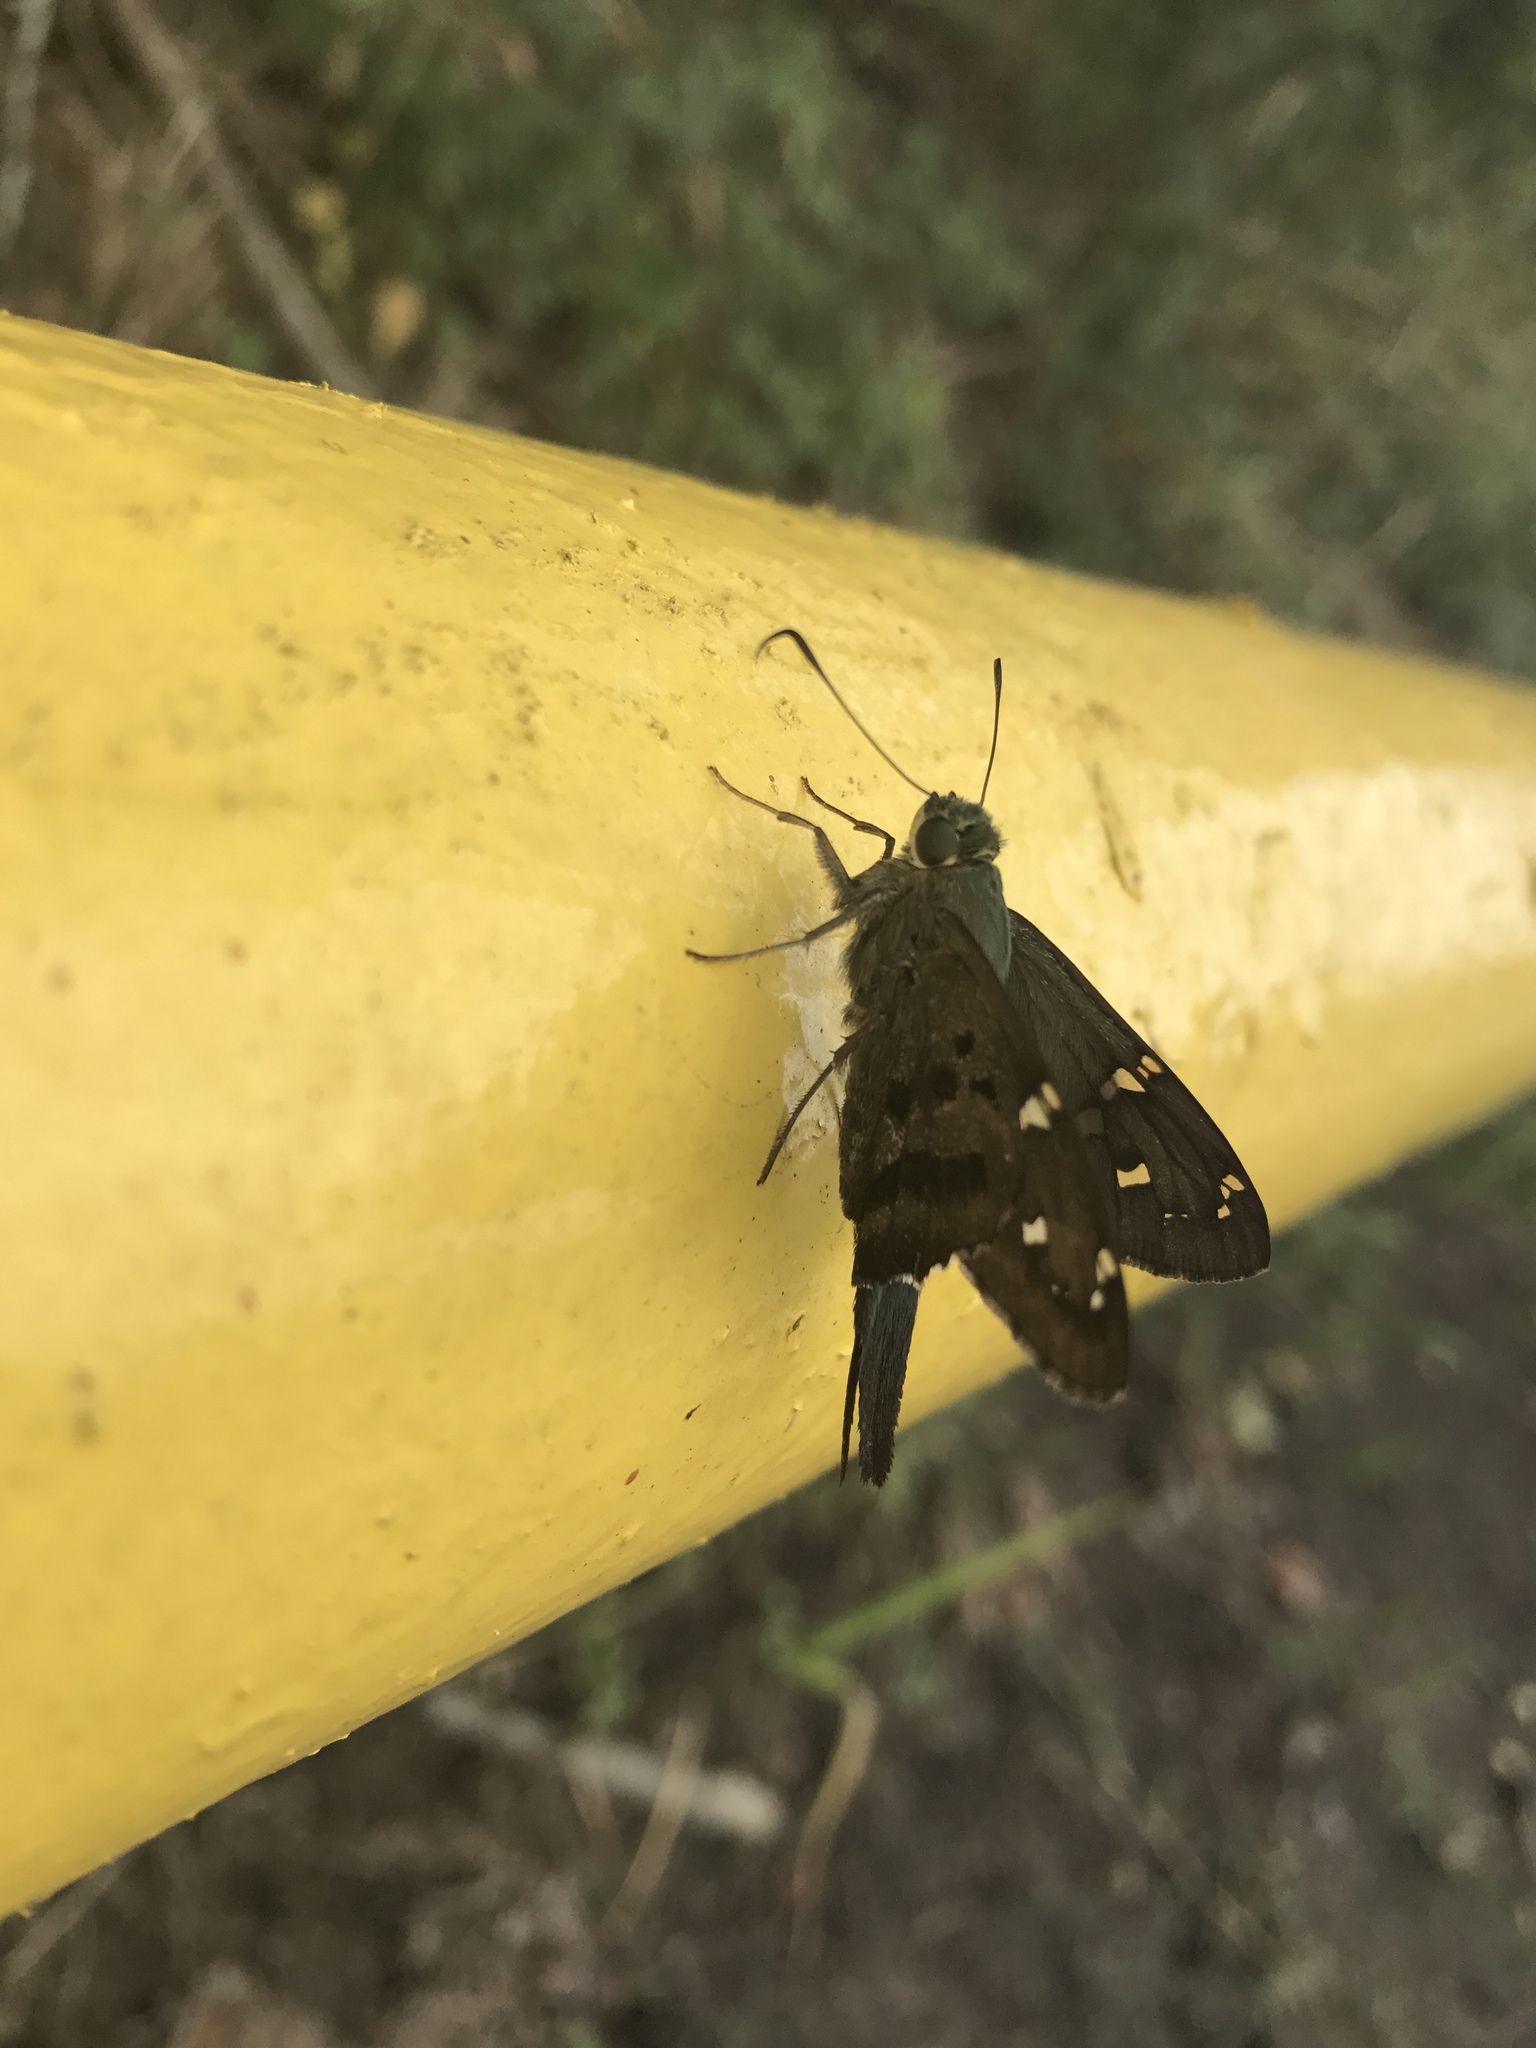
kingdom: Animalia
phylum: Arthropoda
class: Insecta
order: Lepidoptera
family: Hesperiidae
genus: Urbanus
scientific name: Urbanus proteus
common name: Long-tailed skipper
